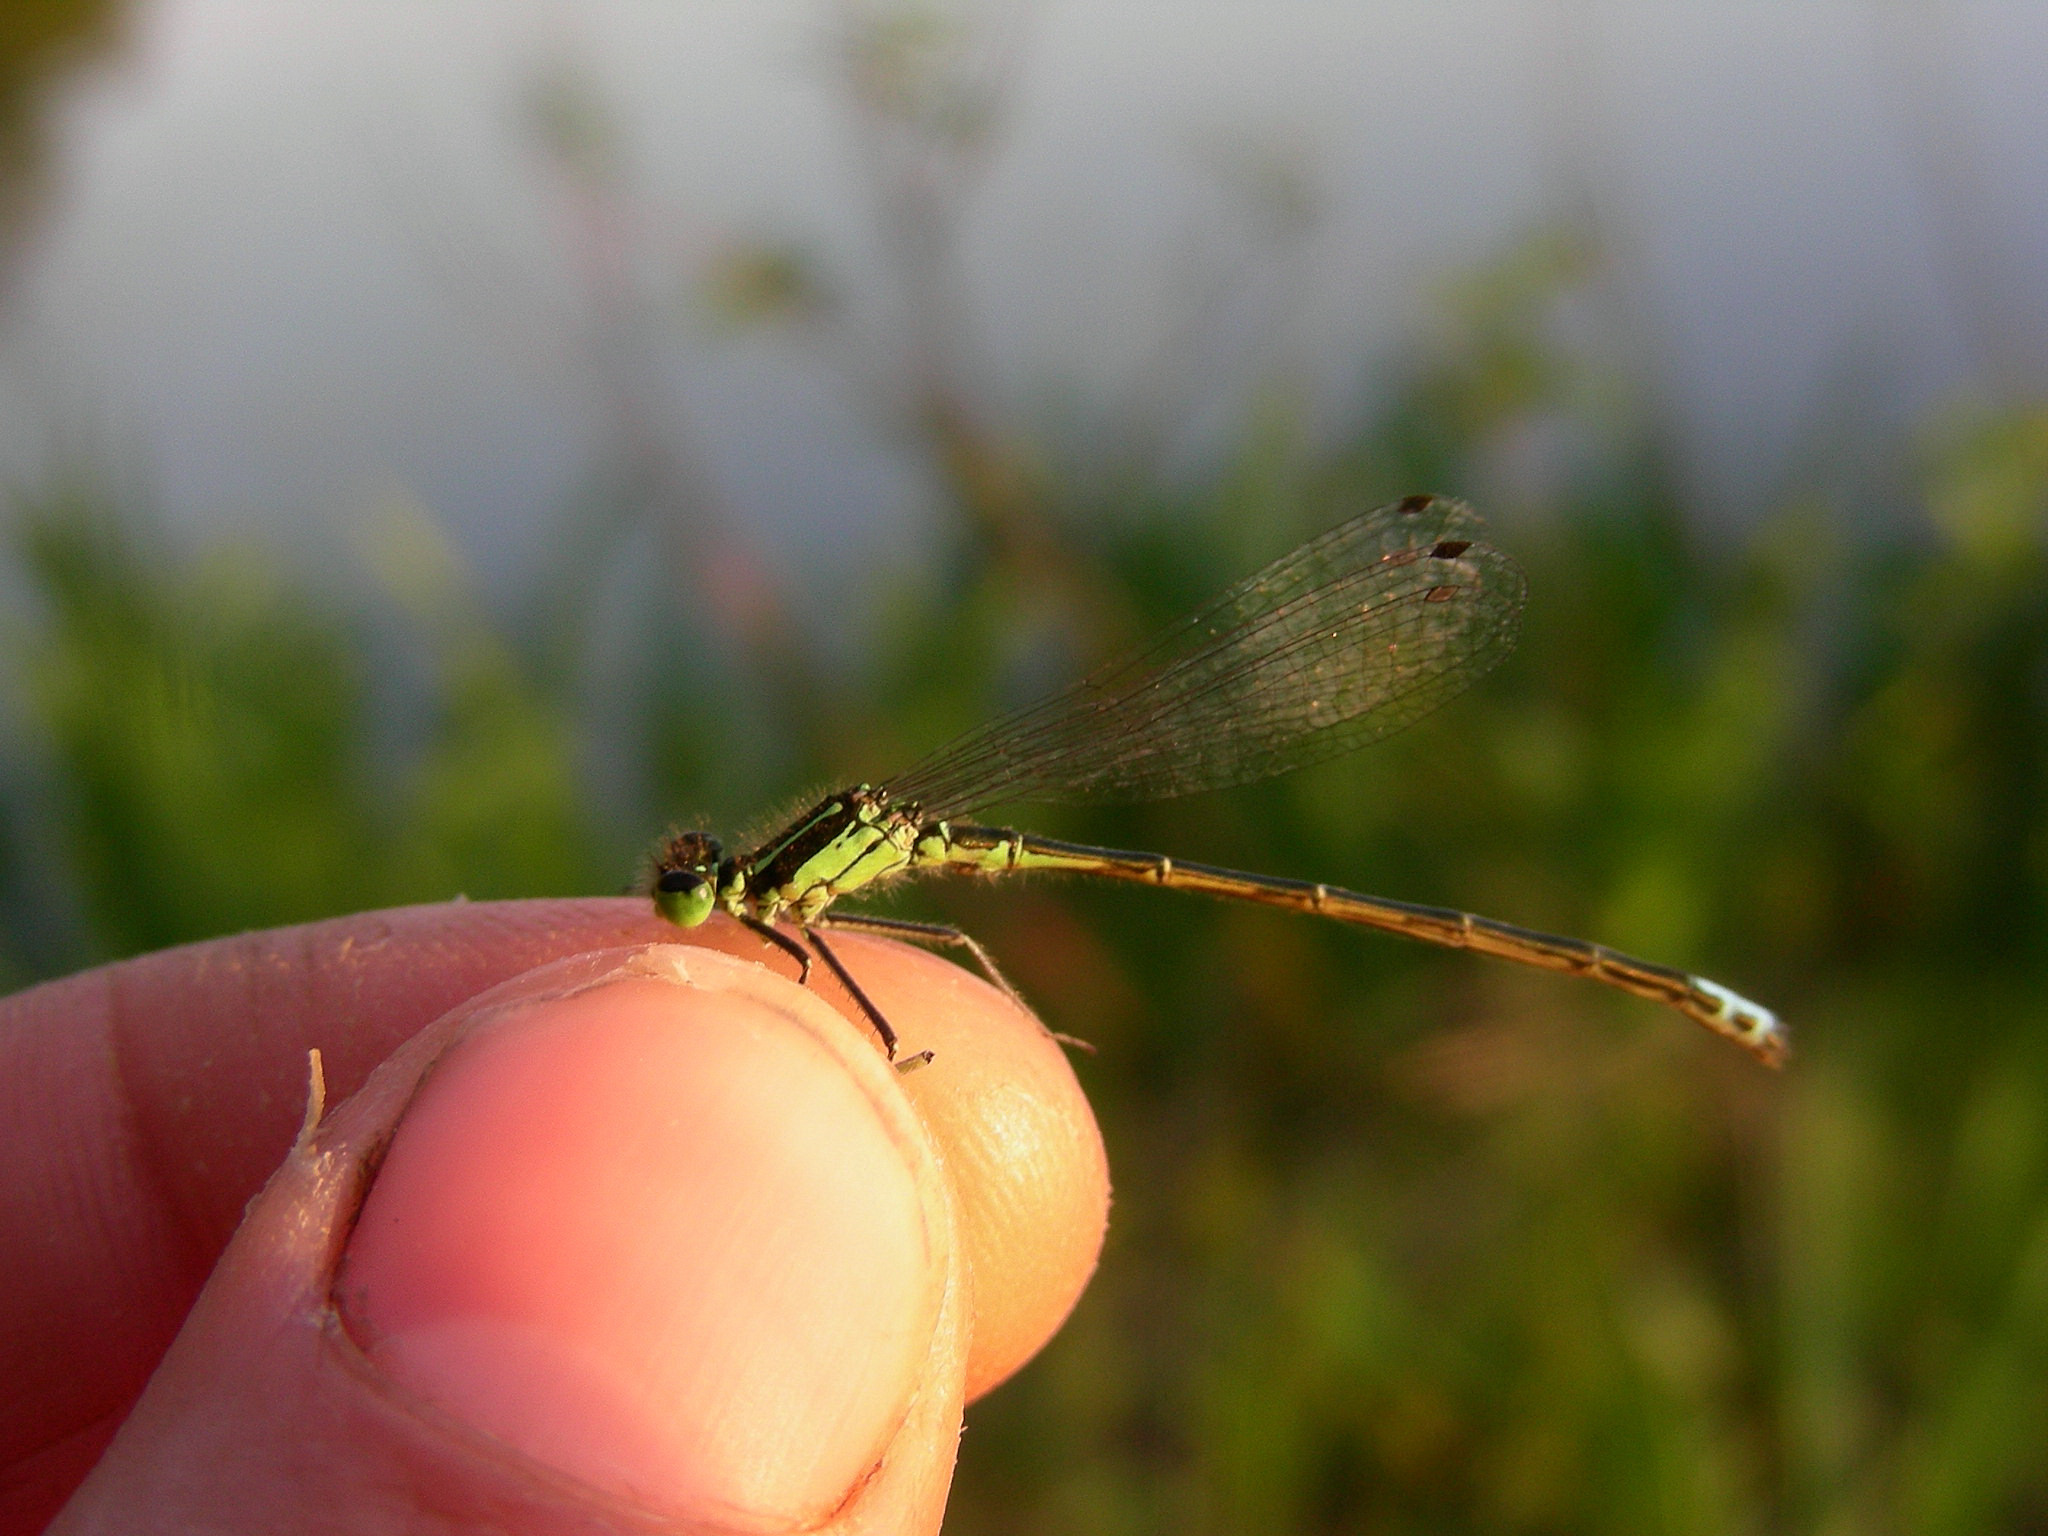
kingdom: Animalia
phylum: Arthropoda
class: Insecta
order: Odonata
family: Coenagrionidae
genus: Ischnura
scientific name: Ischnura verticalis
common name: Eastern forktail
